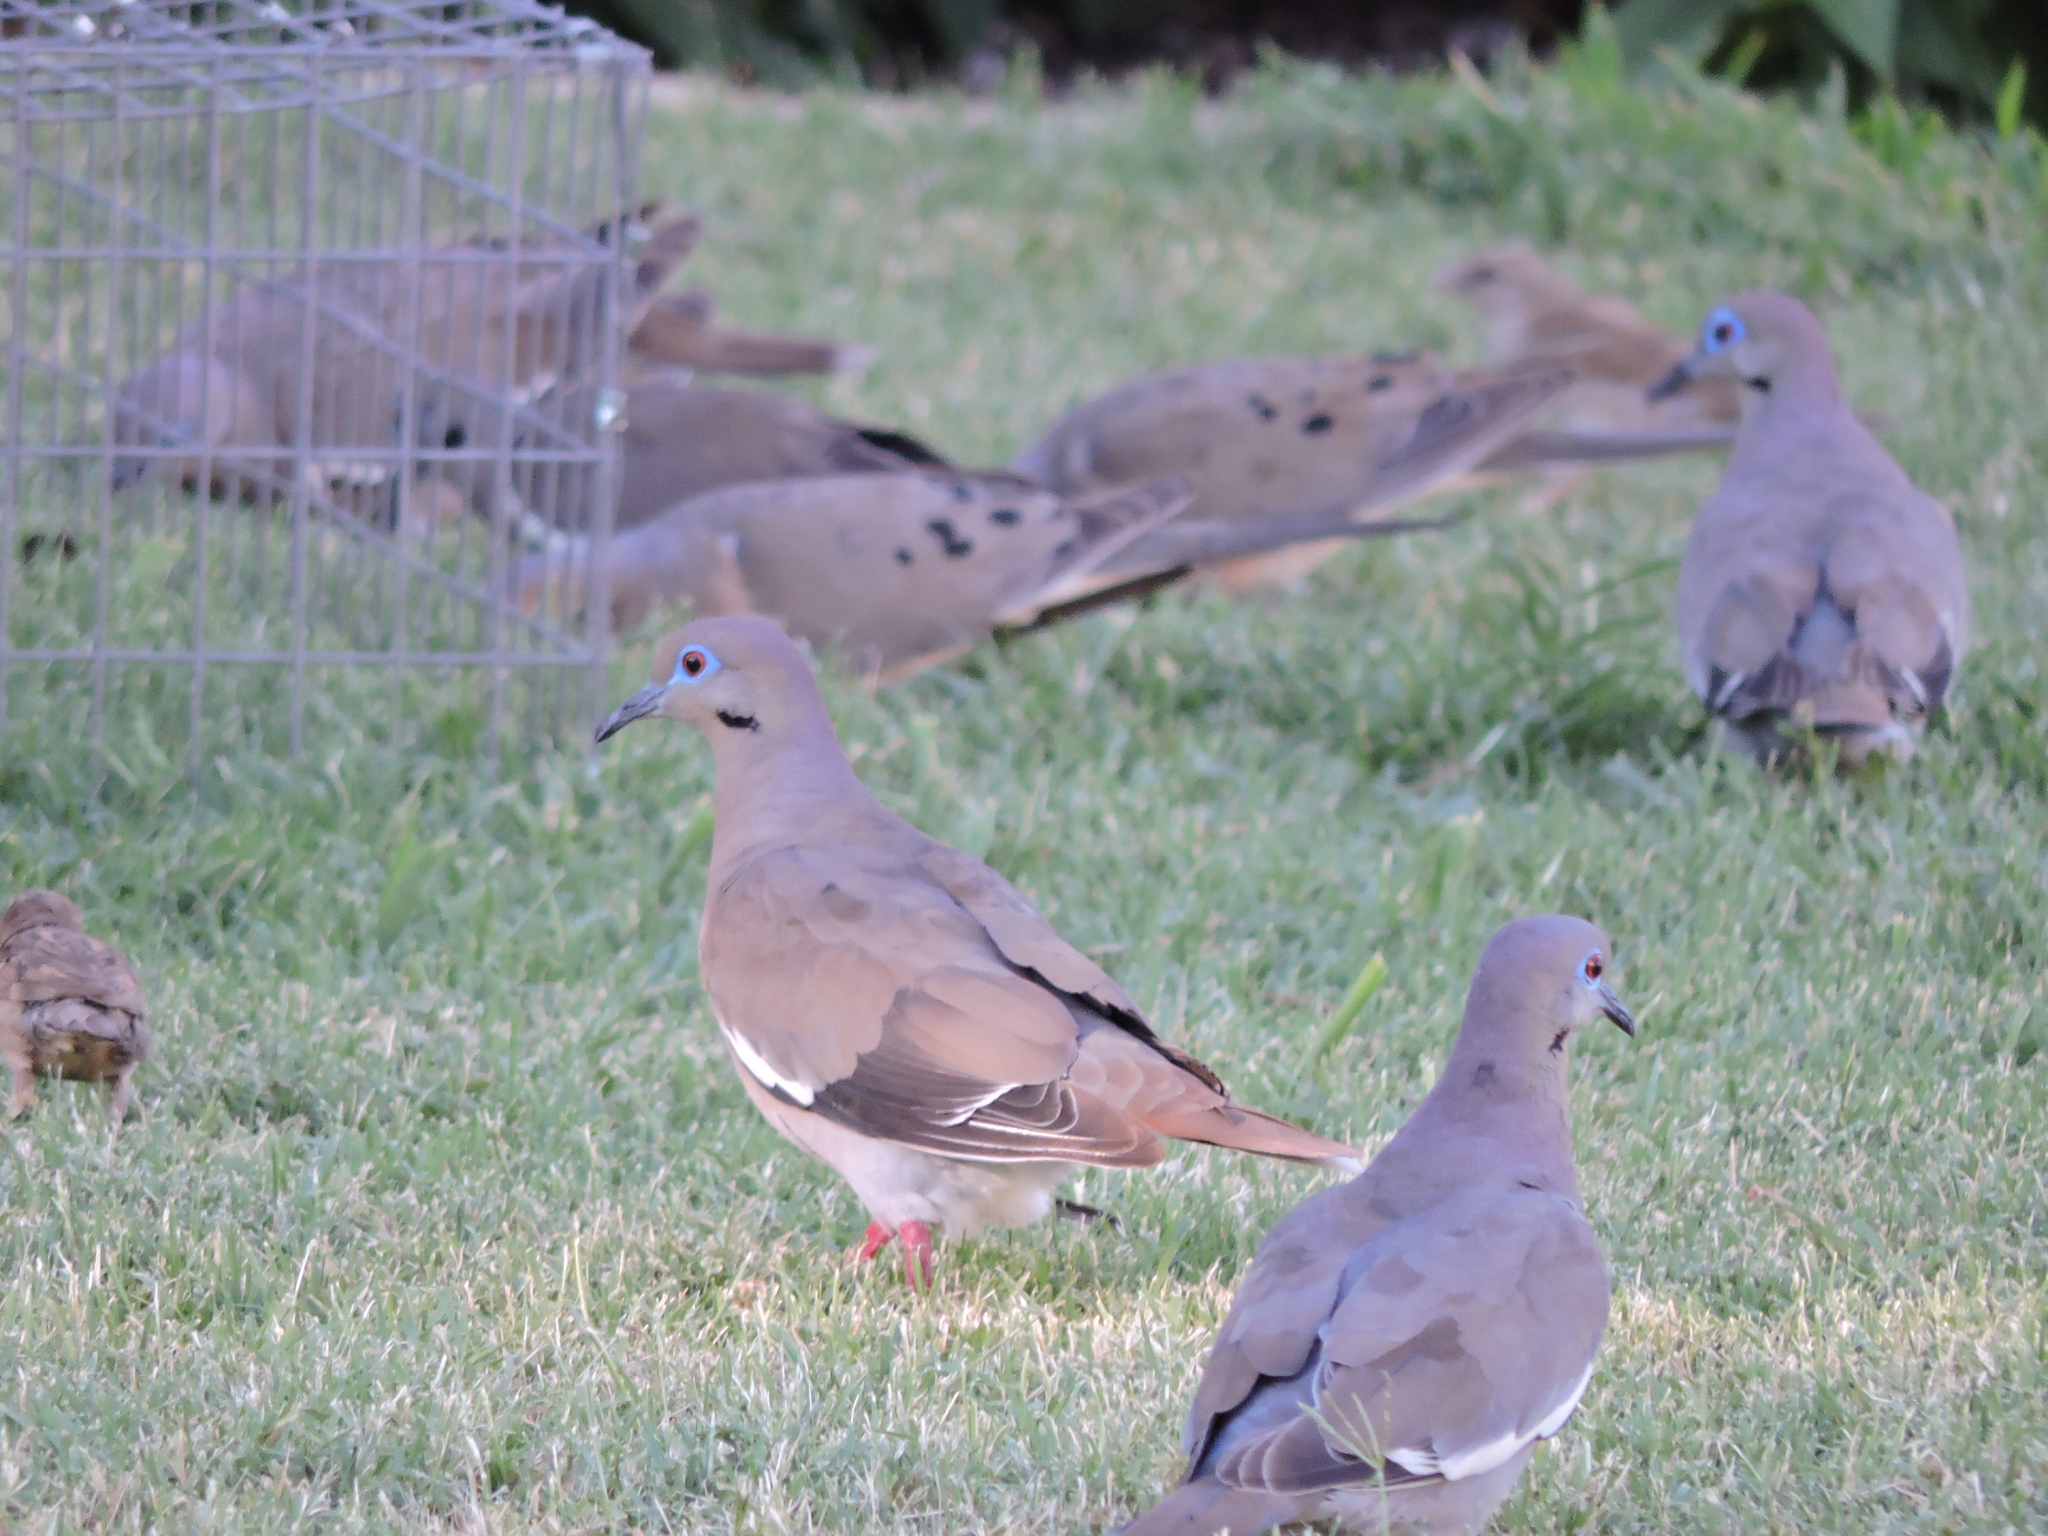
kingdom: Animalia
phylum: Chordata
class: Aves
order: Columbiformes
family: Columbidae
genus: Zenaida
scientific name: Zenaida asiatica
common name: White-winged dove
